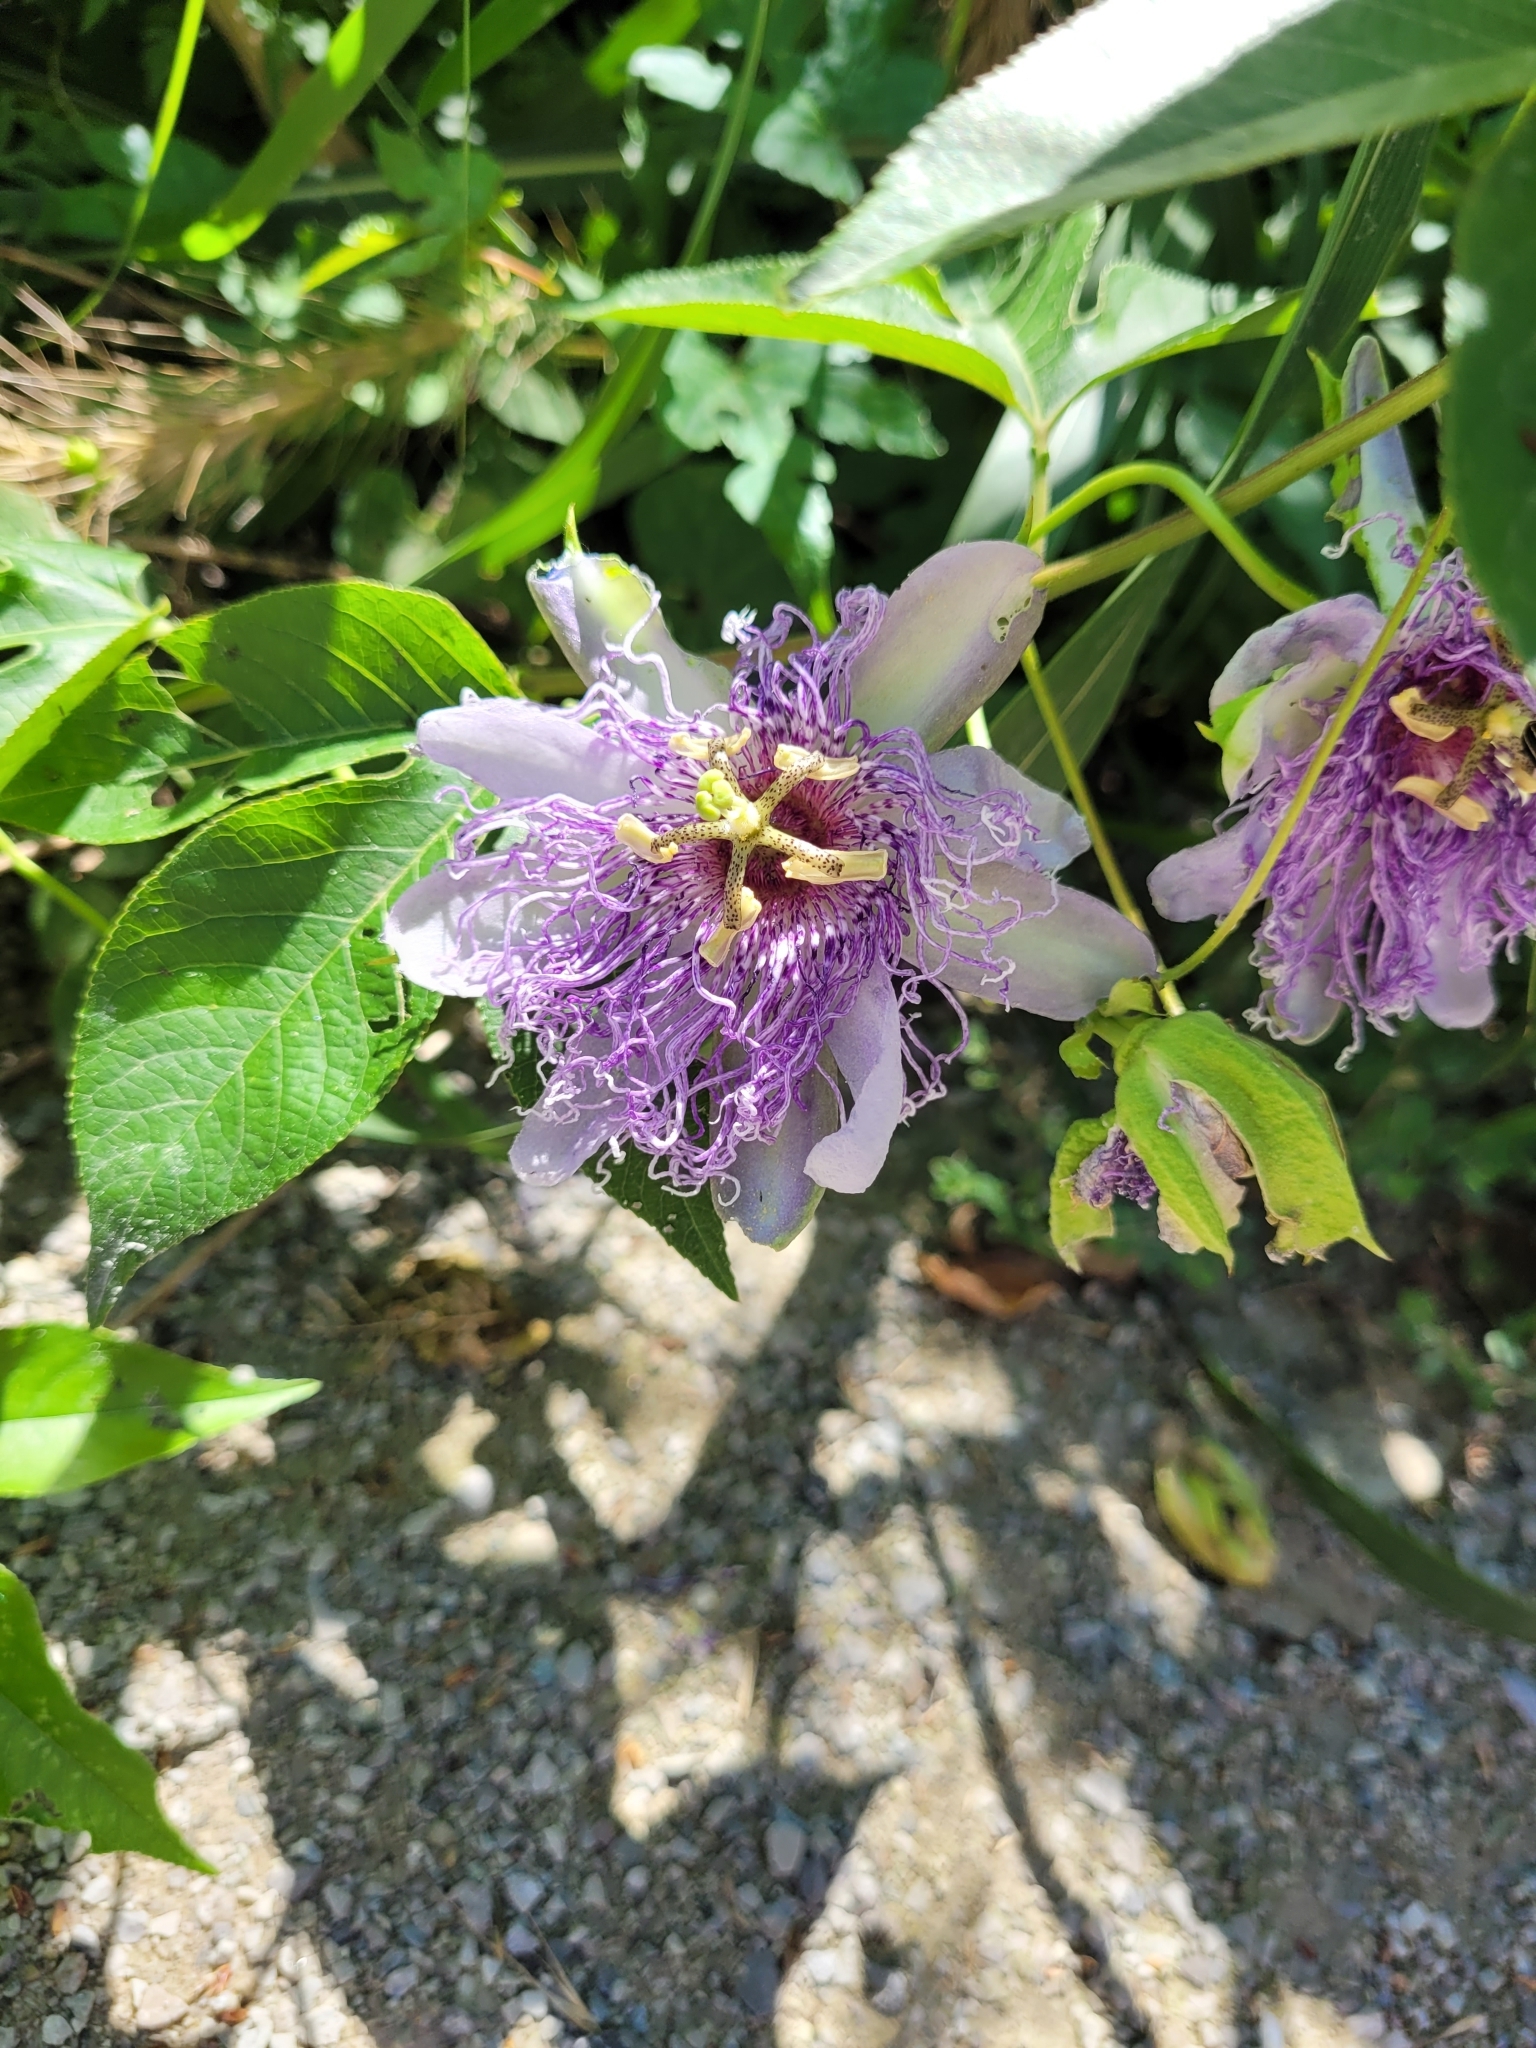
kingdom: Plantae
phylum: Tracheophyta
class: Magnoliopsida
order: Malpighiales
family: Passifloraceae
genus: Passiflora
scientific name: Passiflora incarnata
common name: Apricot-vine
